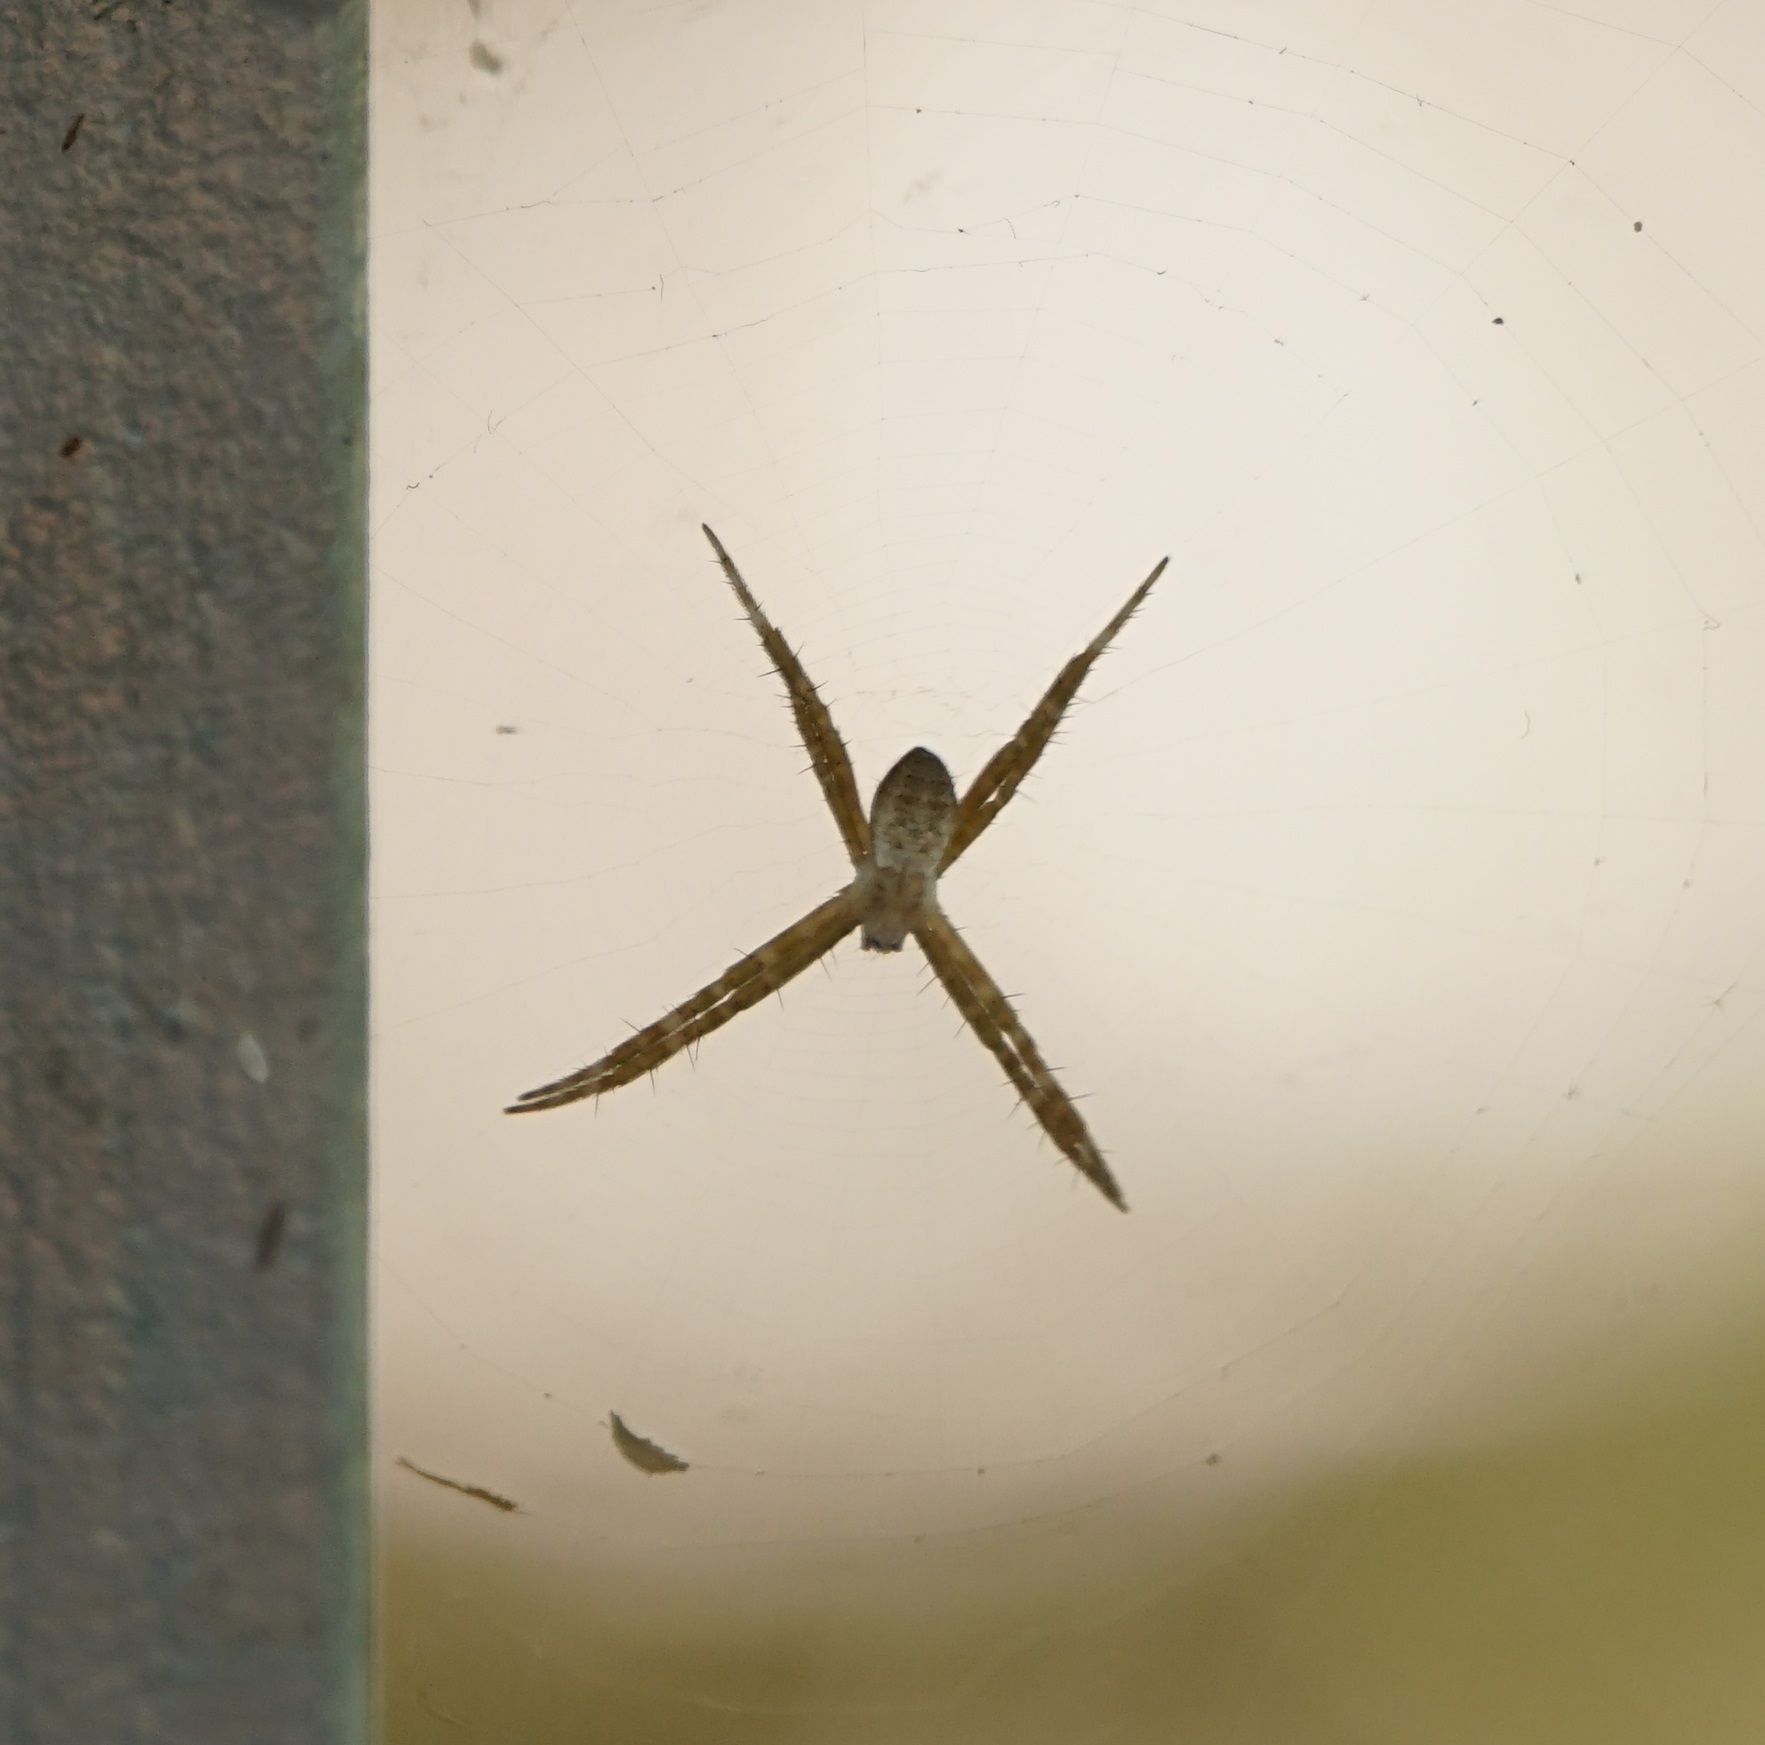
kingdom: Animalia
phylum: Arthropoda
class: Arachnida
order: Araneae
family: Araneidae
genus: Argiope
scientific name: Argiope keyserlingi
